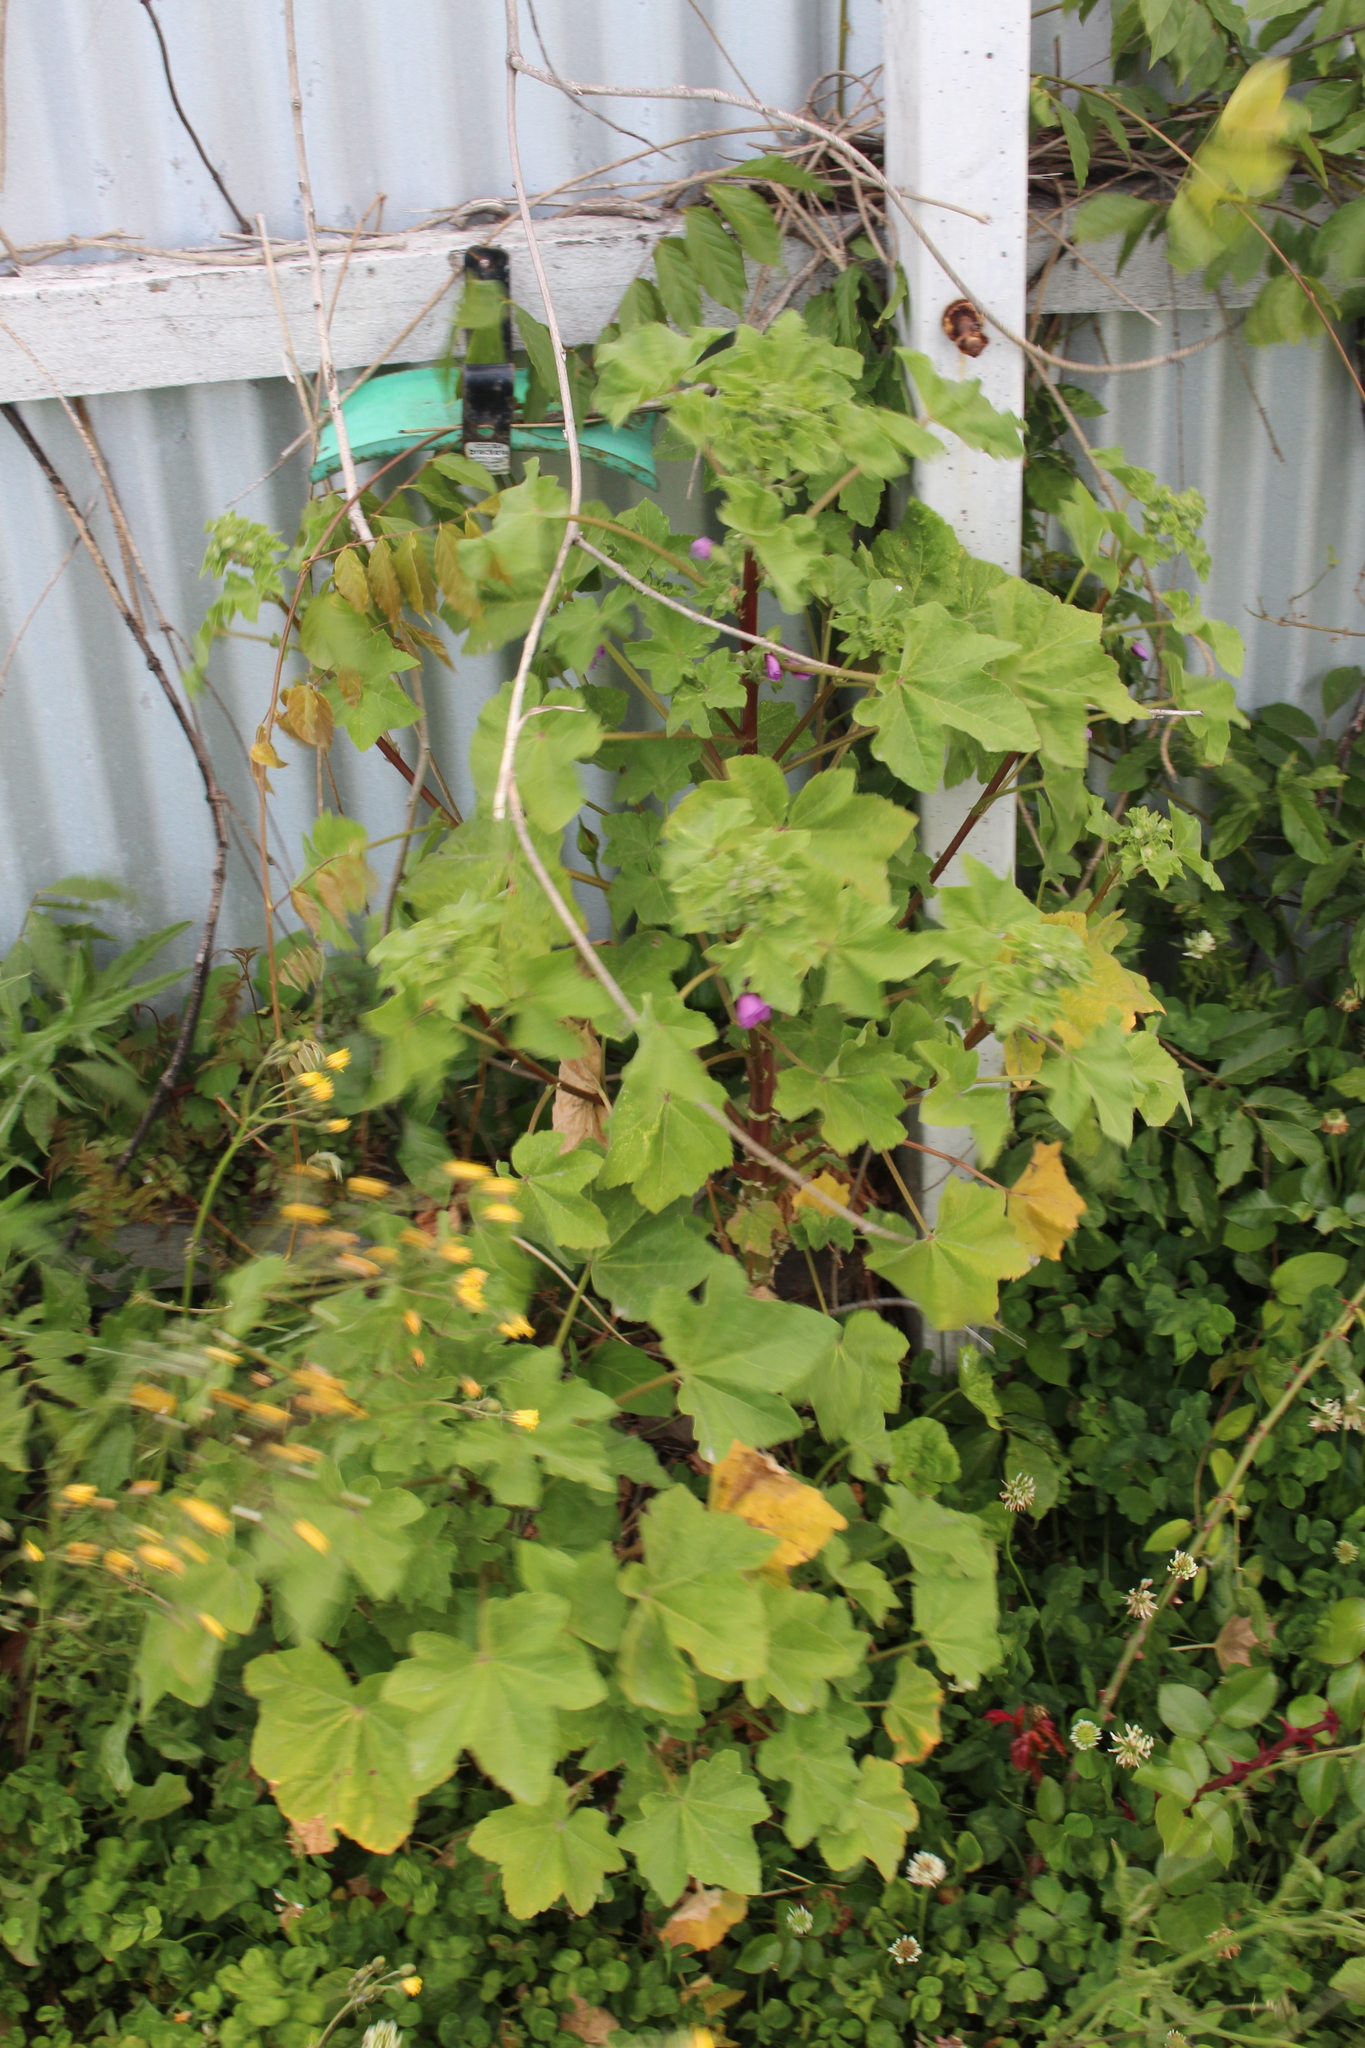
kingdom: Plantae
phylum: Tracheophyta
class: Magnoliopsida
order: Malvales
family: Malvaceae
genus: Malva
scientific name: Malva arborea
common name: Tree mallow
